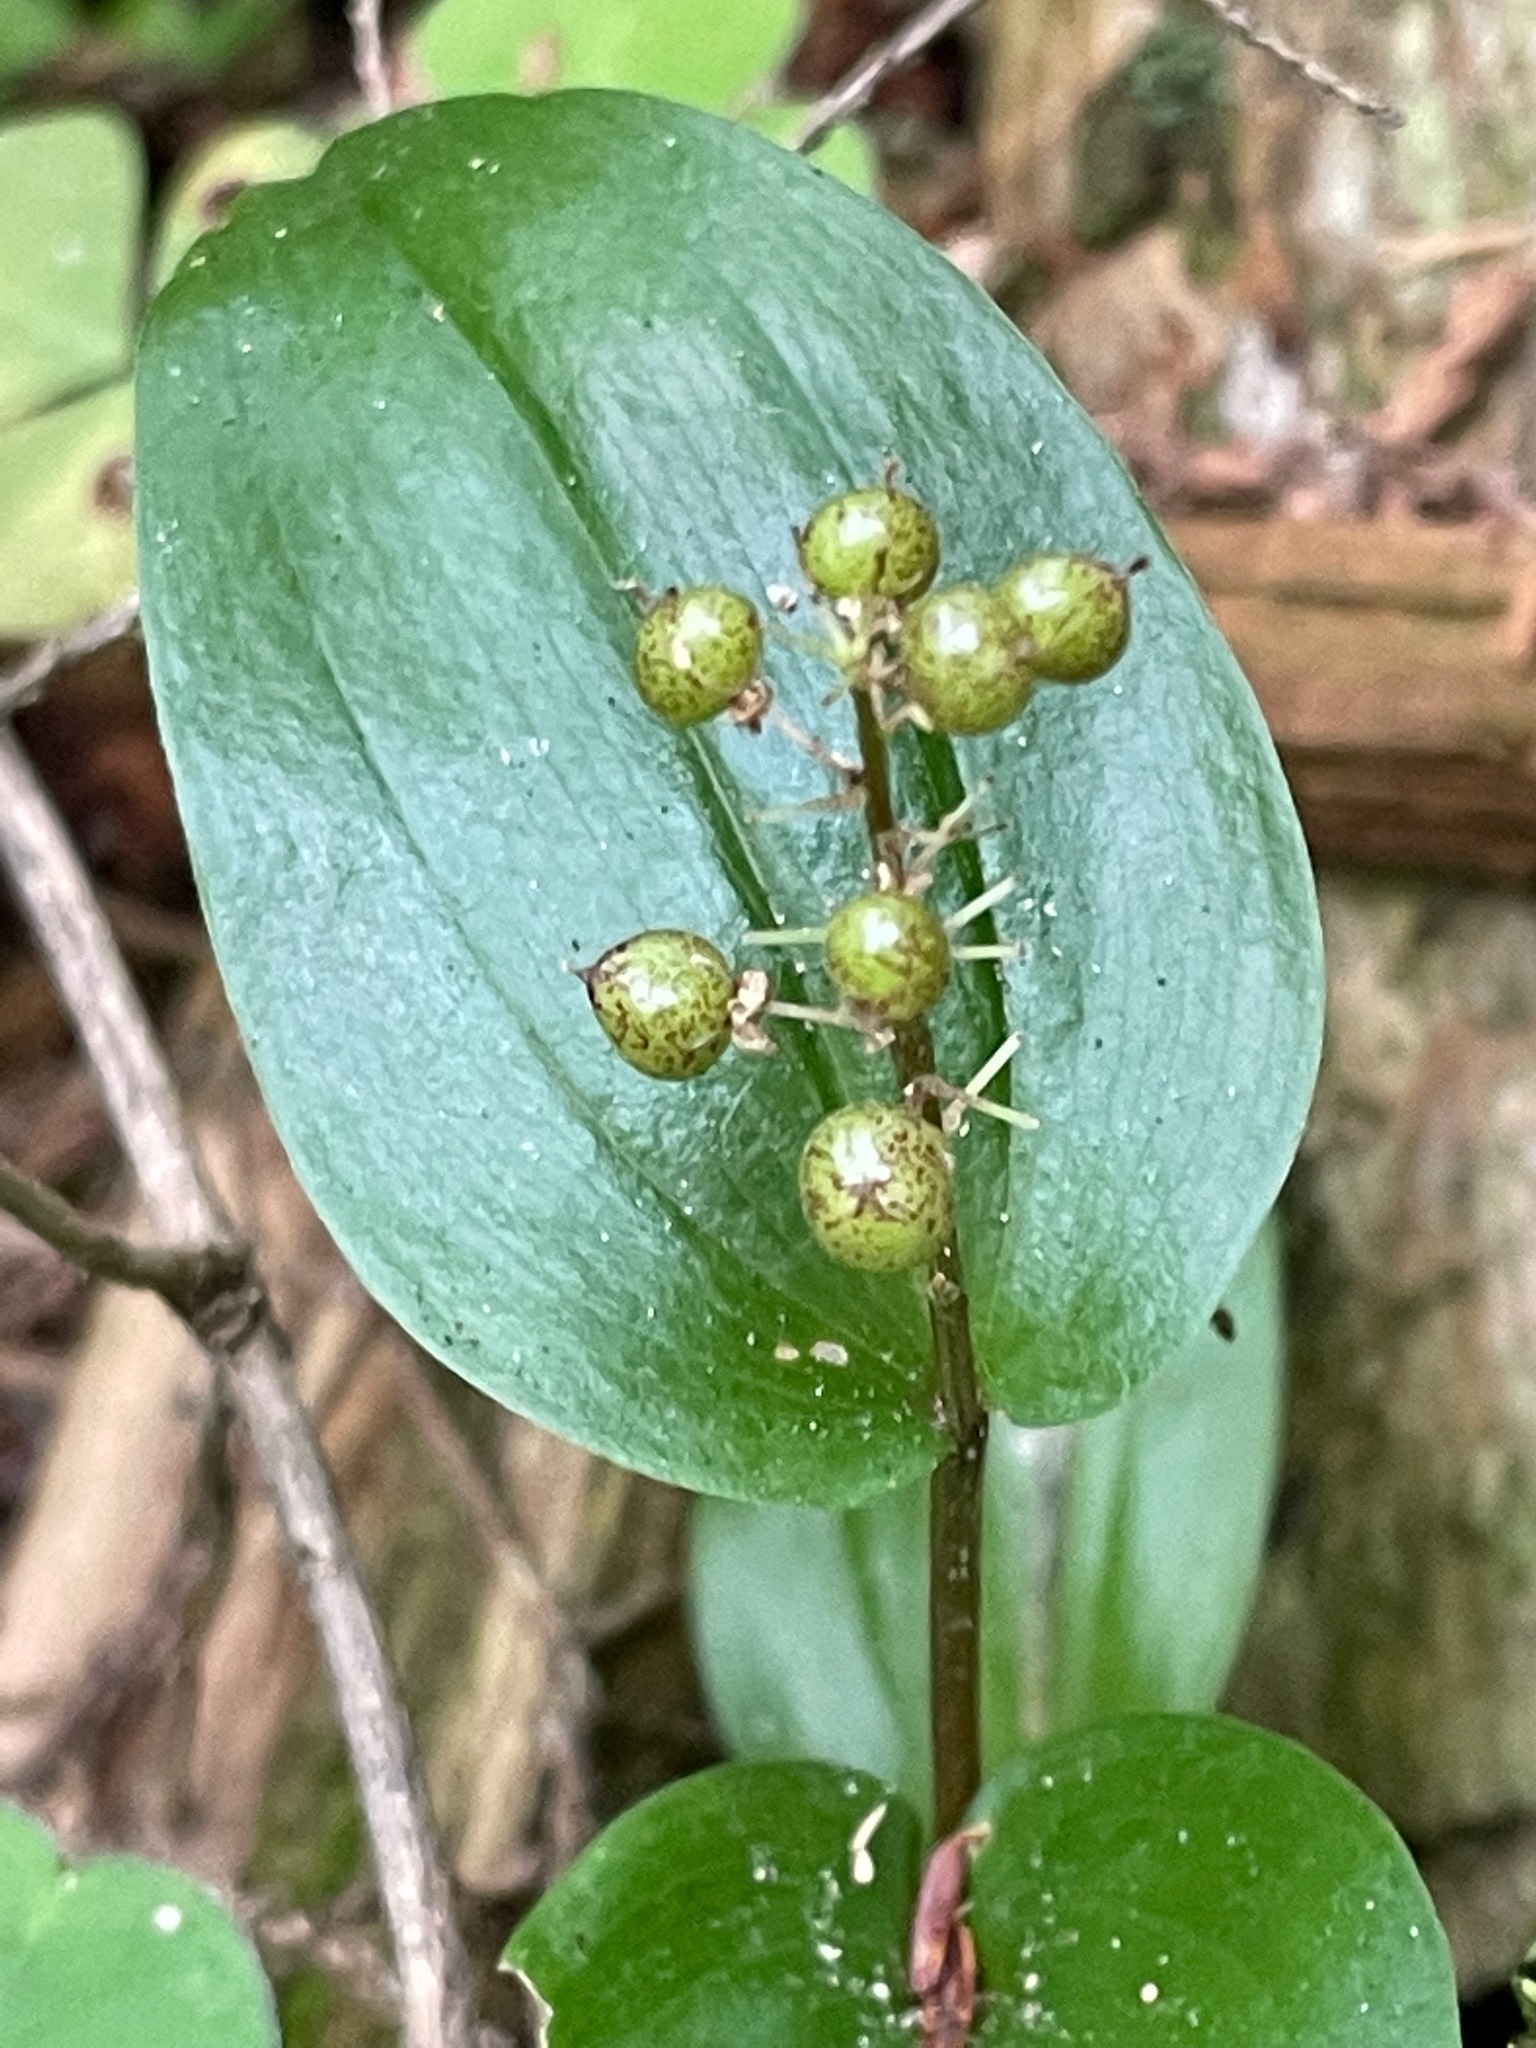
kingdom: Plantae
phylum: Tracheophyta
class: Liliopsida
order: Asparagales
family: Asparagaceae
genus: Maianthemum
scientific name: Maianthemum canadense
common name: False lily-of-the-valley
